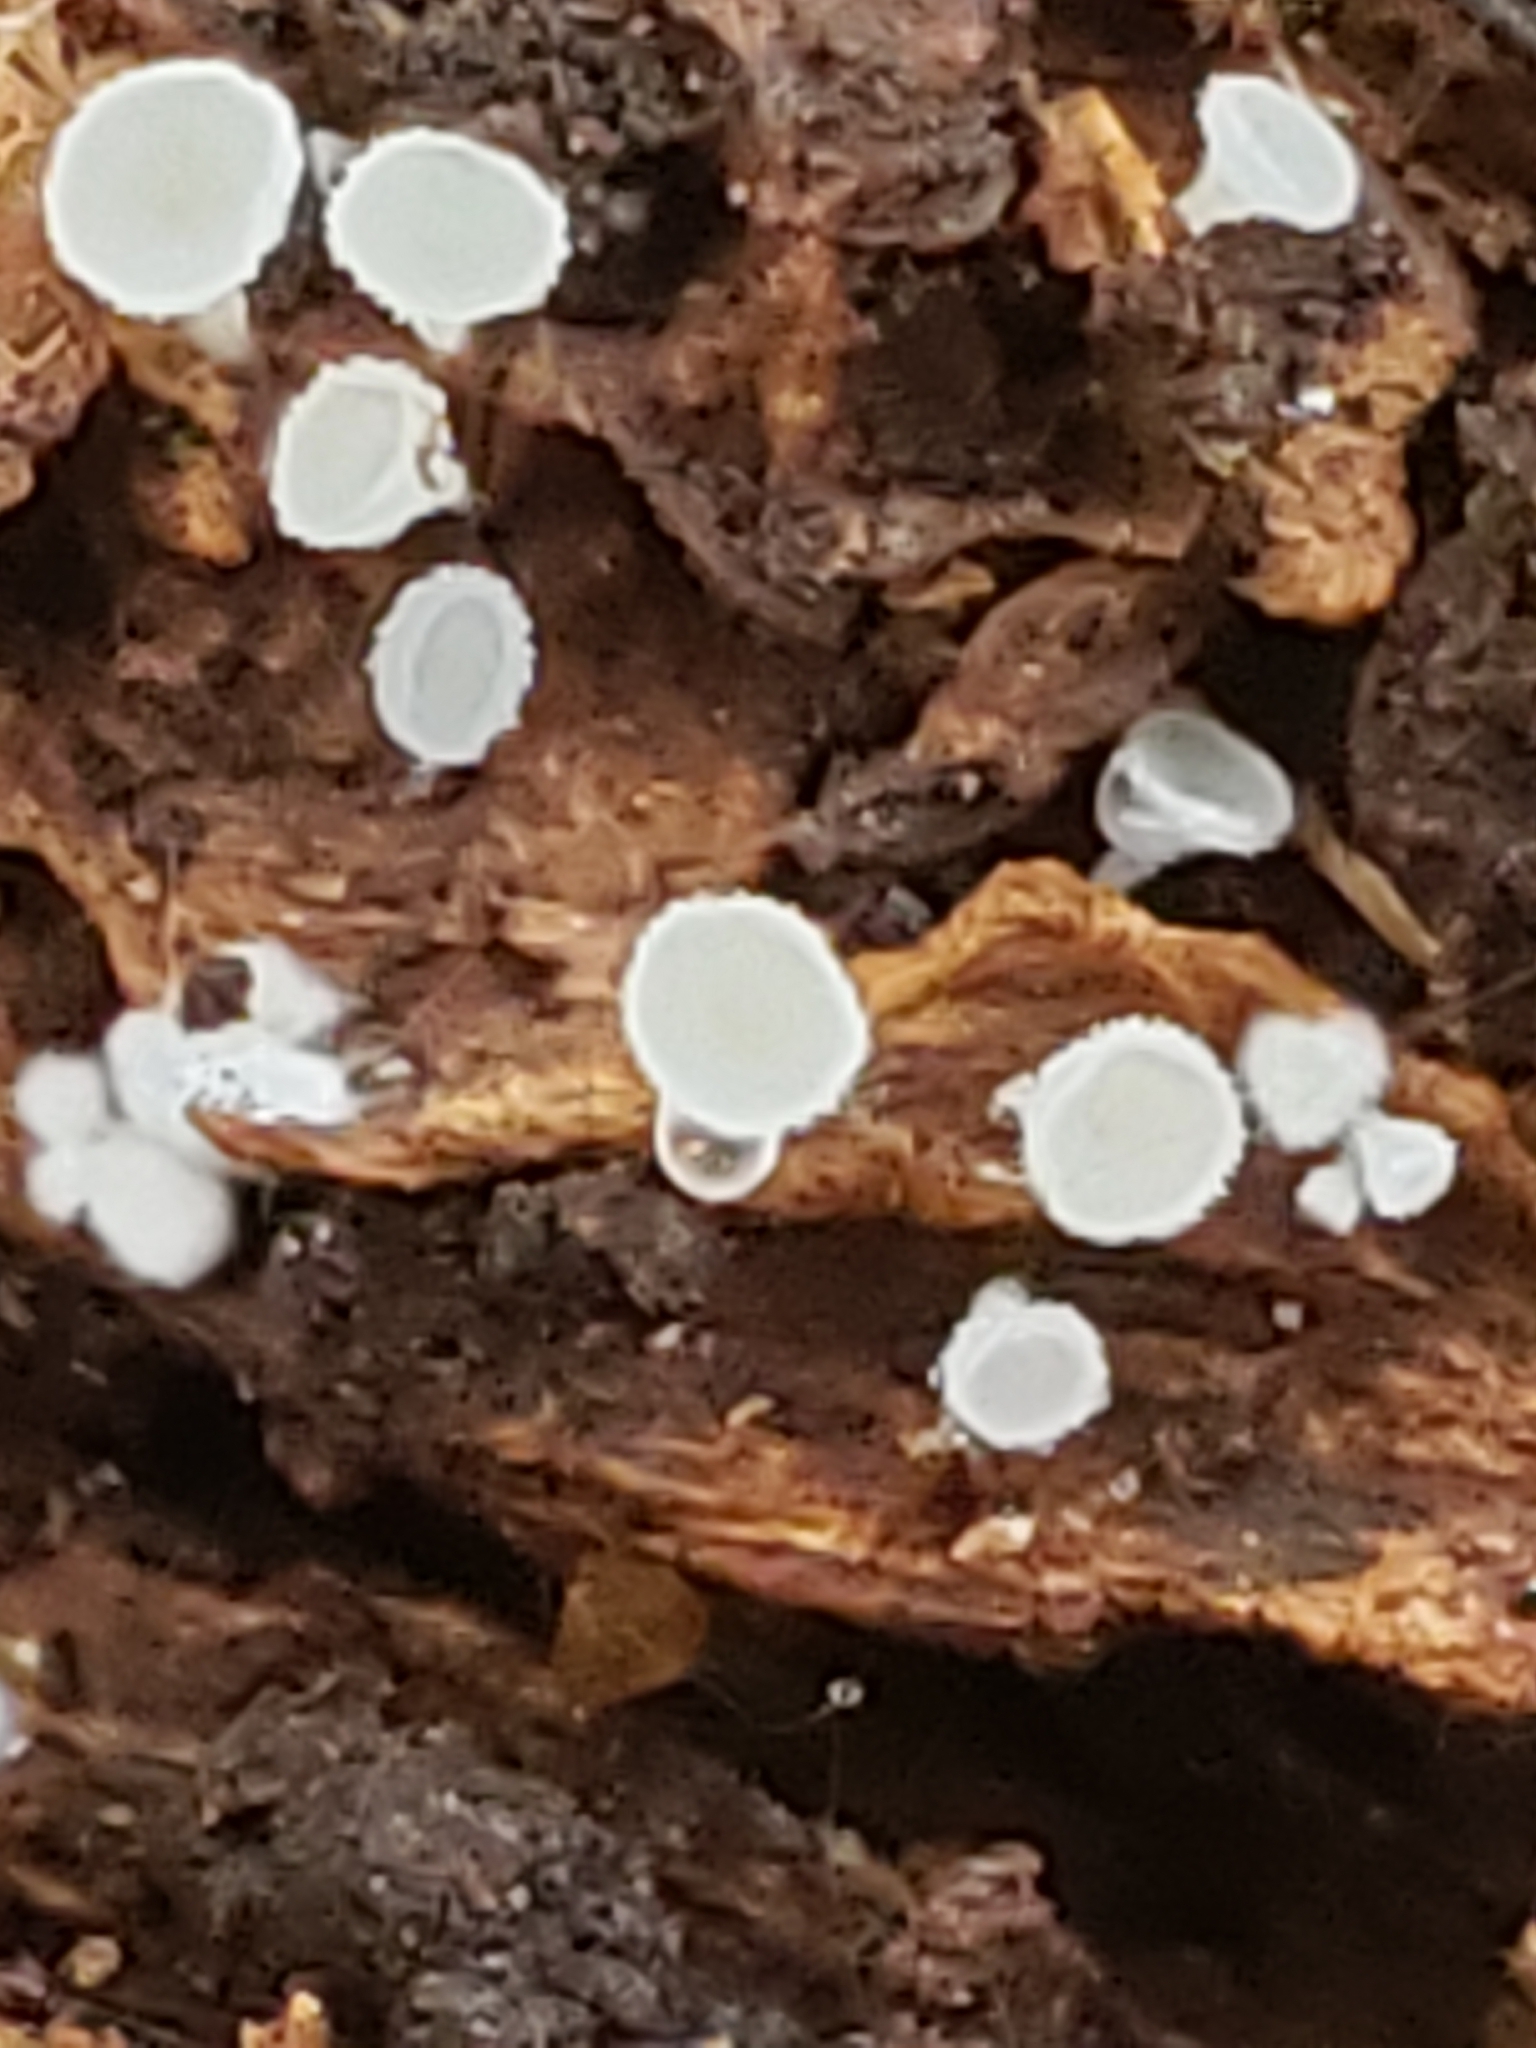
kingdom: Fungi
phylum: Ascomycota
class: Leotiomycetes
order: Helotiales
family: Lachnaceae
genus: Lachnum
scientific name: Lachnum virgineum
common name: Snowy disco
